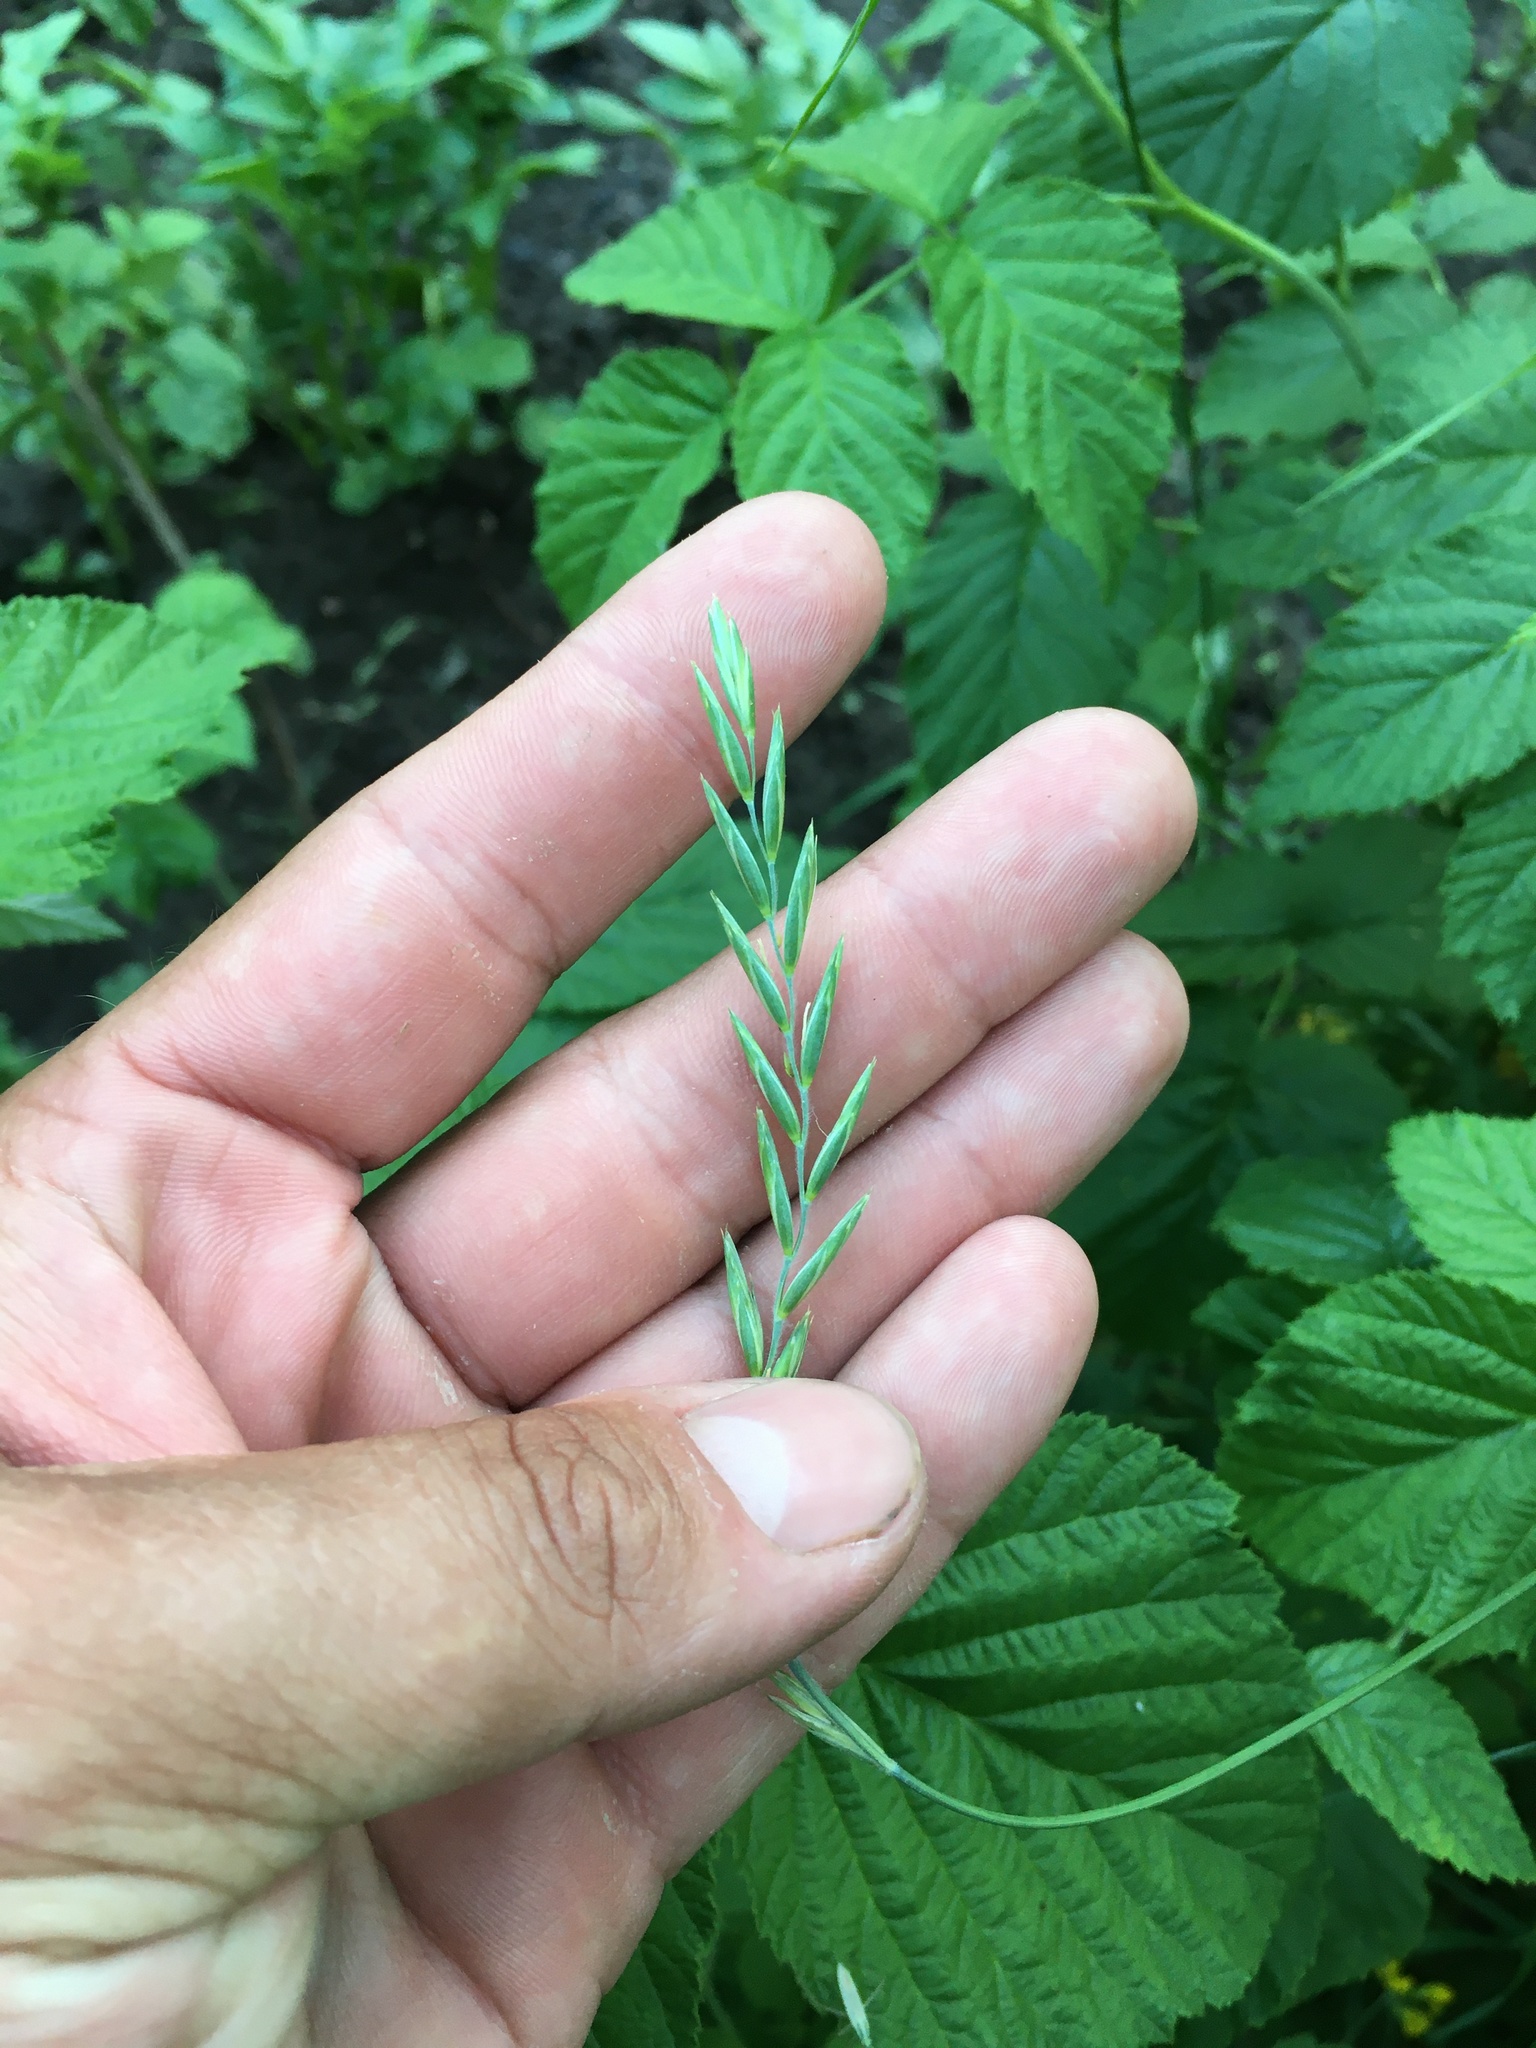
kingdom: Plantae
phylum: Tracheophyta
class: Liliopsida
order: Poales
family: Poaceae
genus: Elymus
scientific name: Elymus repens
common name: Quackgrass
